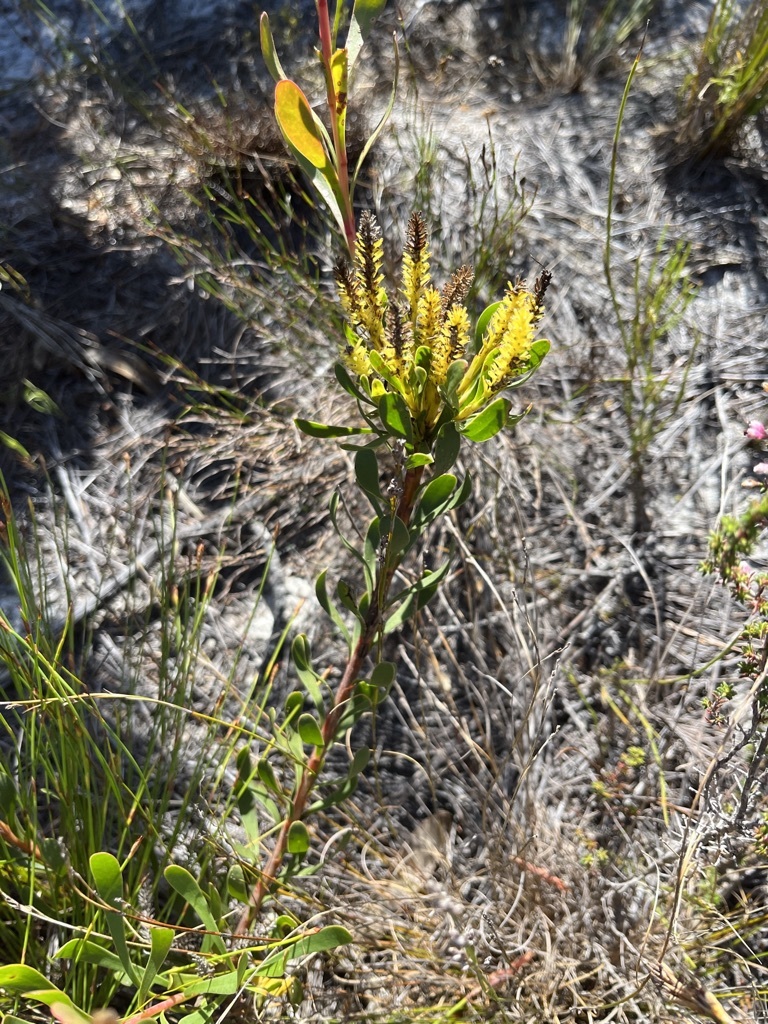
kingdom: Plantae
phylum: Tracheophyta
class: Magnoliopsida
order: Proteales
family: Proteaceae
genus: Aulax
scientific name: Aulax umbellata
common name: Broad-leaf featherbush
